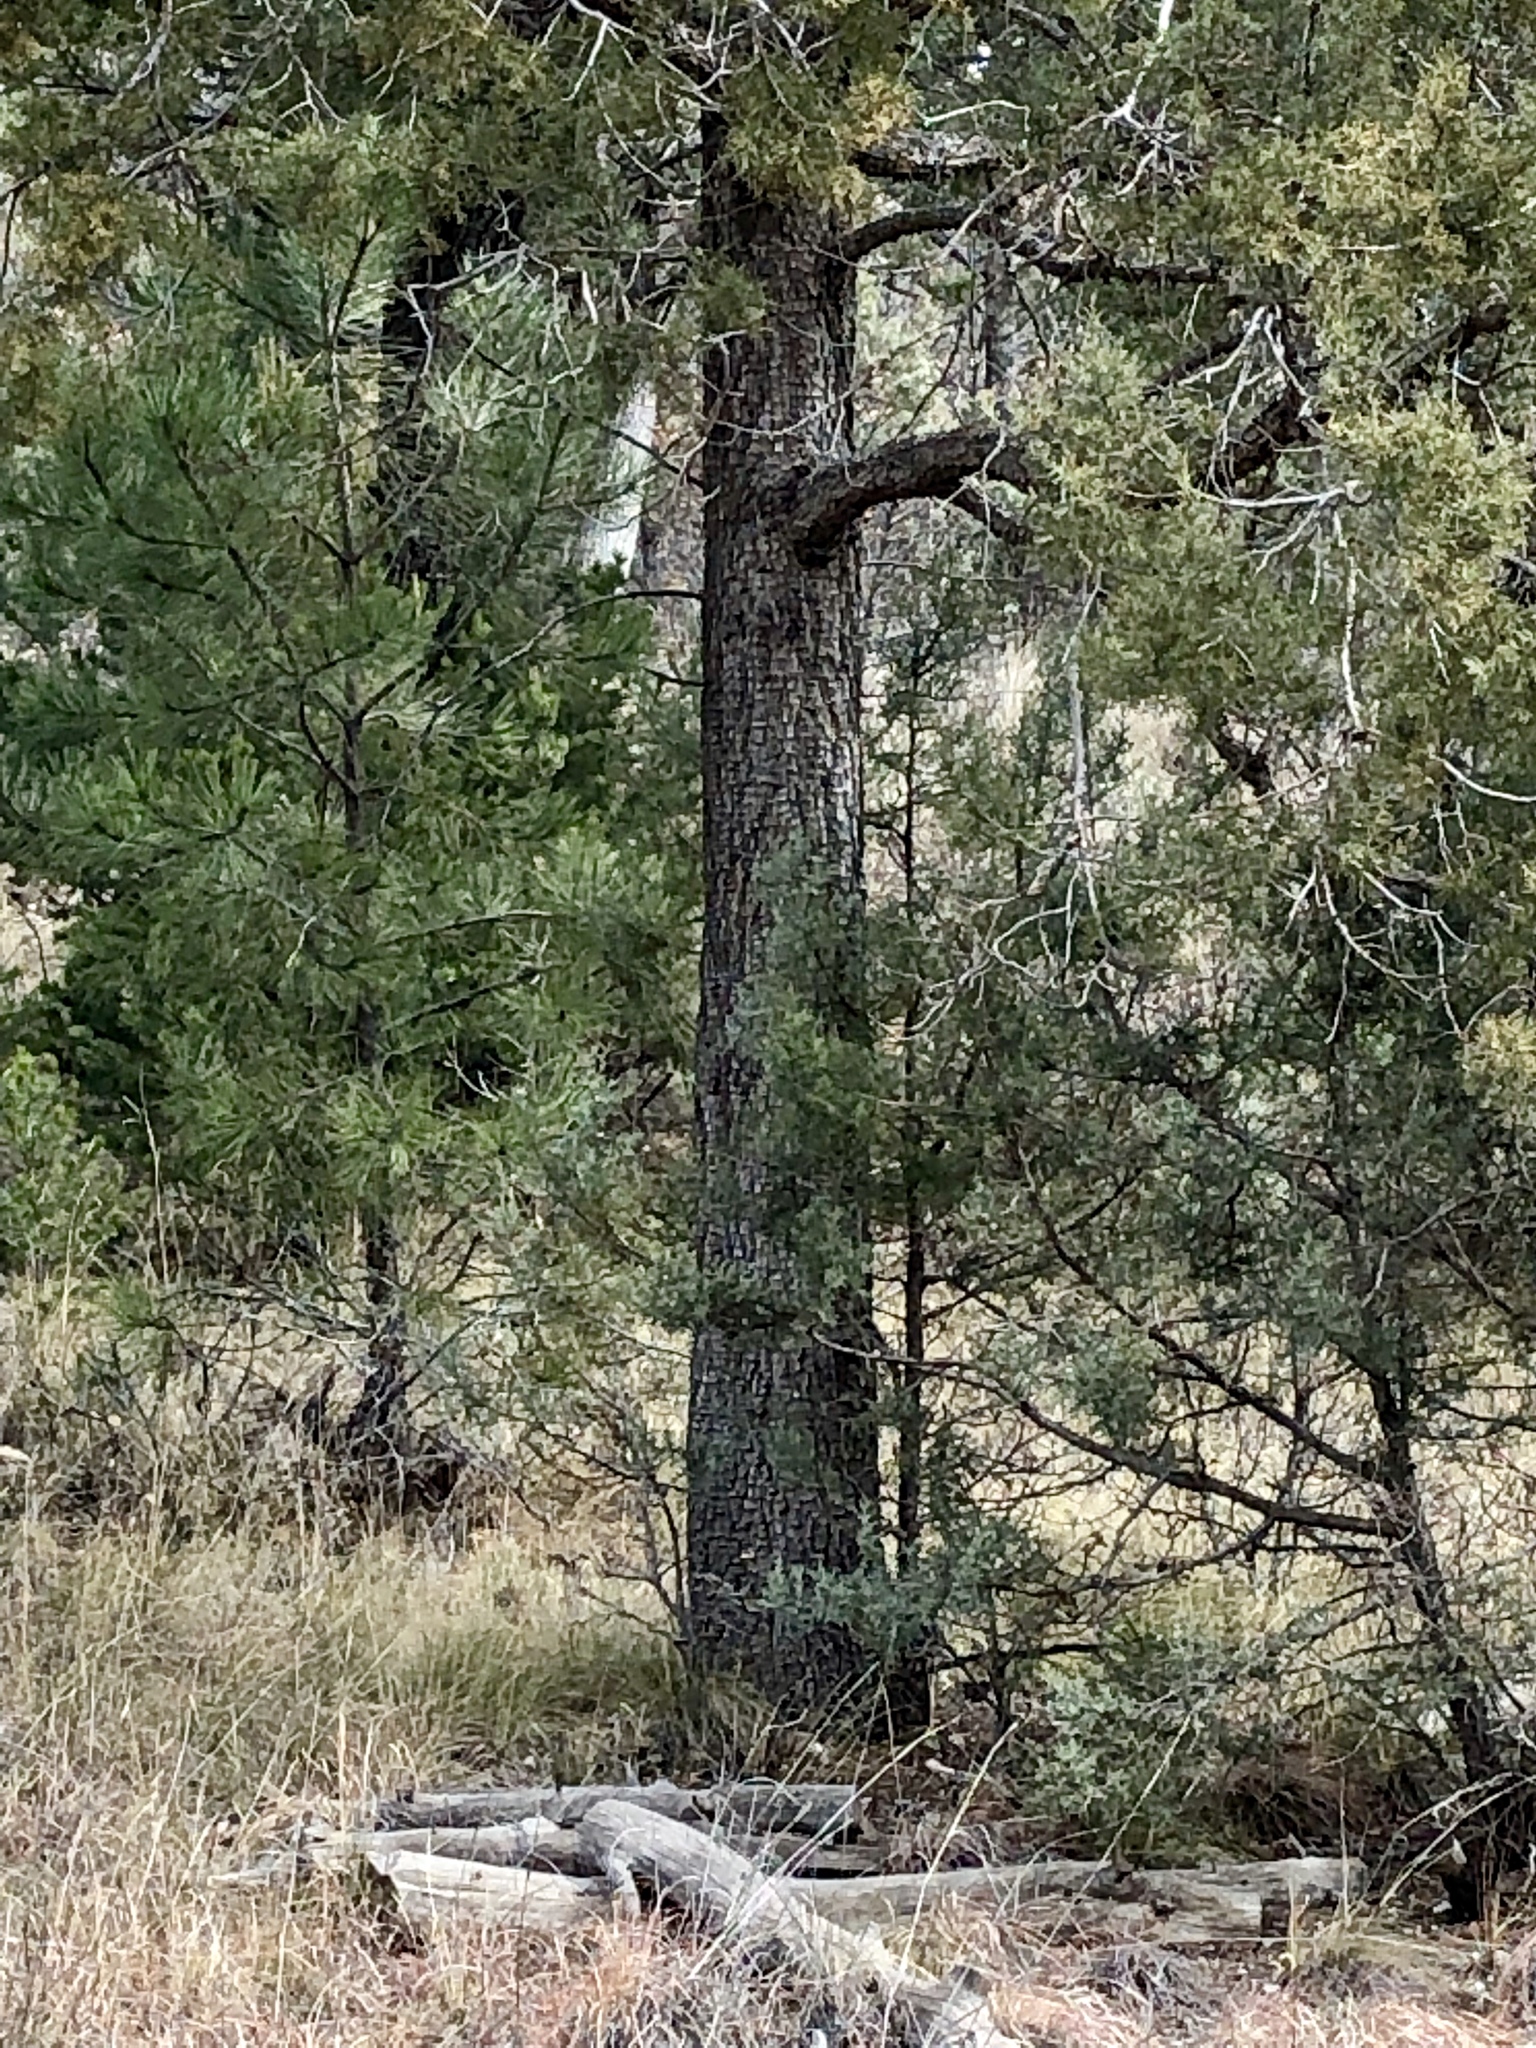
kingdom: Plantae
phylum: Tracheophyta
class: Pinopsida
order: Pinales
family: Cupressaceae
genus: Juniperus
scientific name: Juniperus deppeana
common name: Alligator juniper
